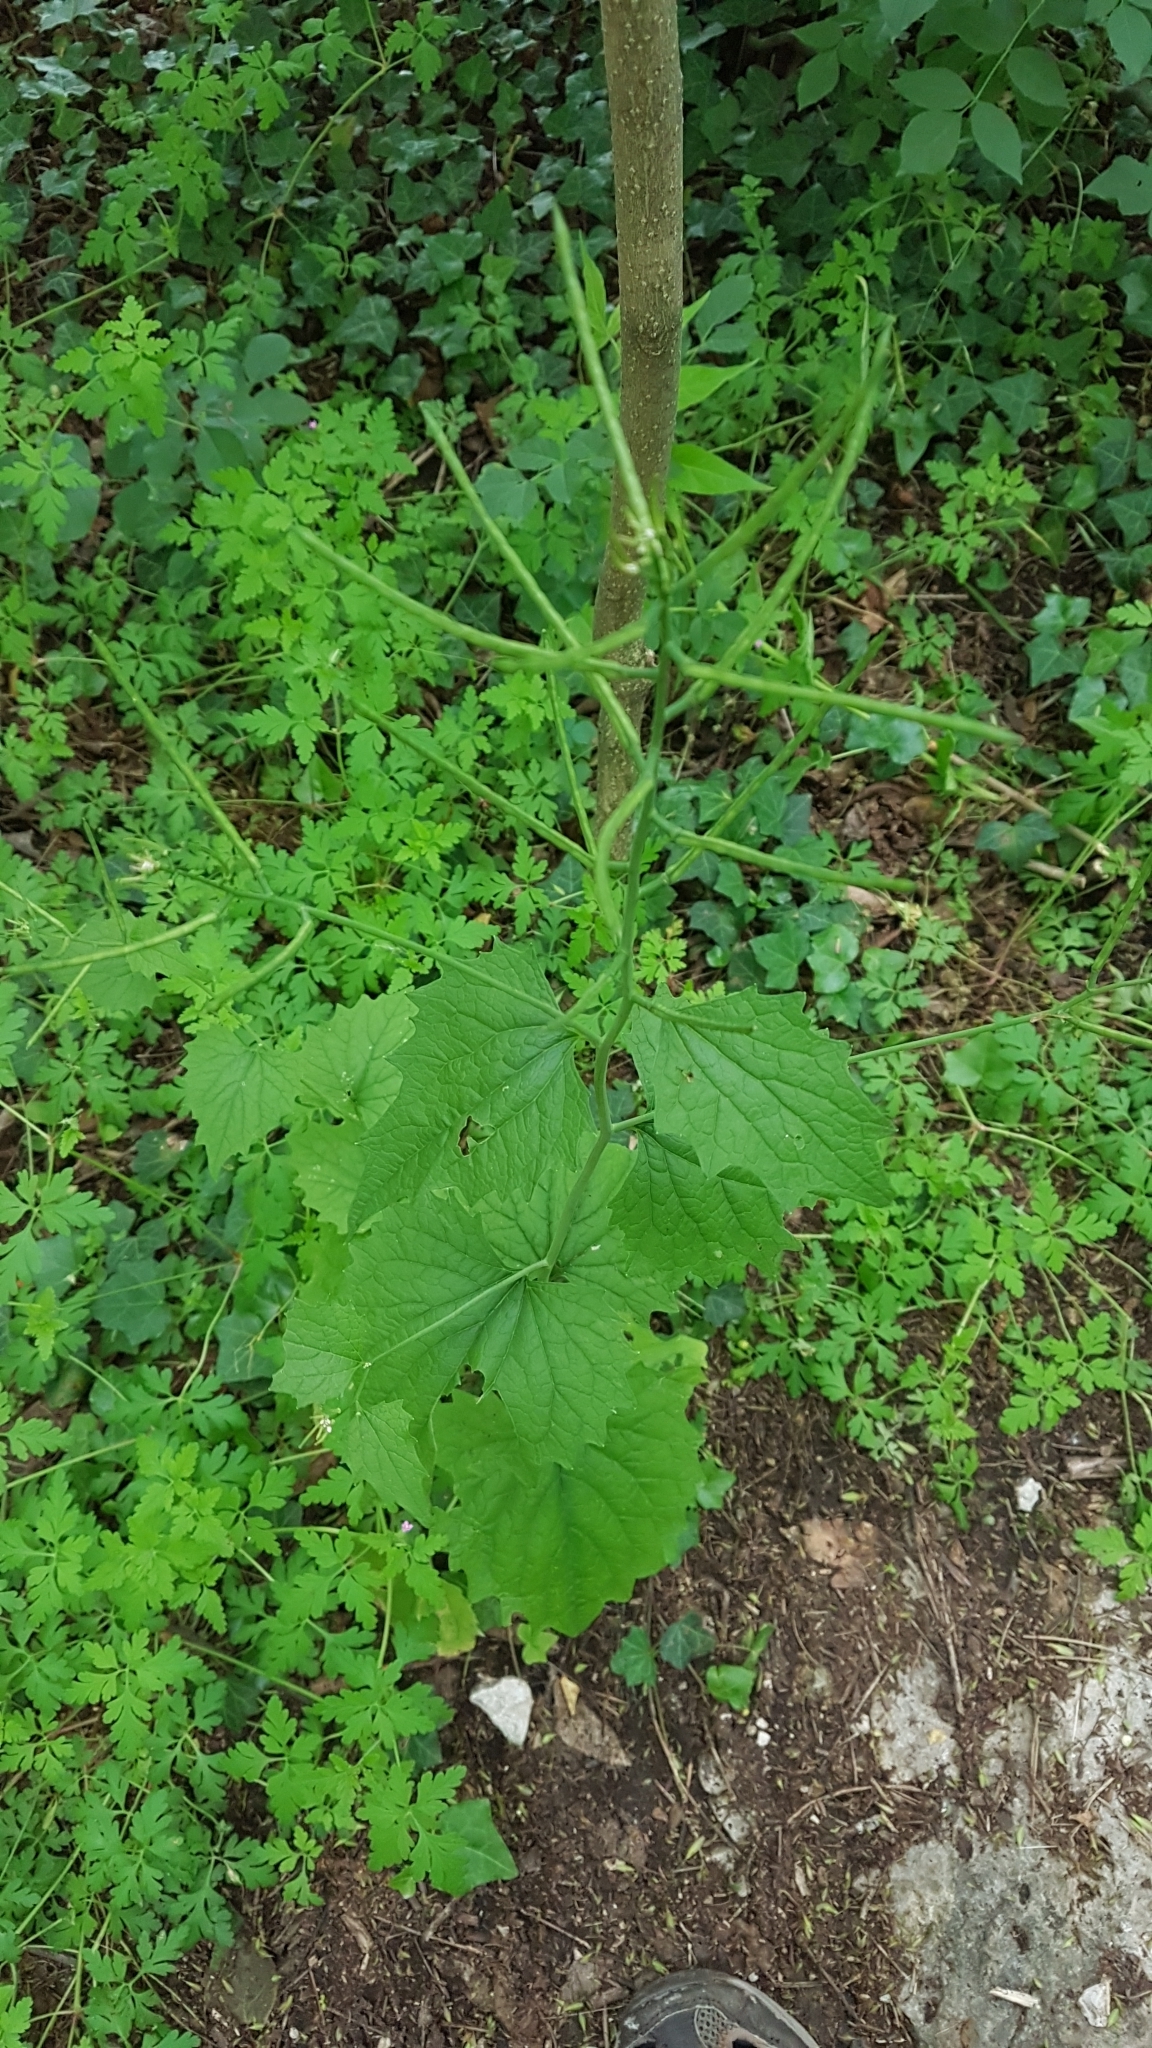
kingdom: Plantae
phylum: Tracheophyta
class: Magnoliopsida
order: Brassicales
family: Brassicaceae
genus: Alliaria
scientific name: Alliaria petiolata
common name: Garlic mustard
